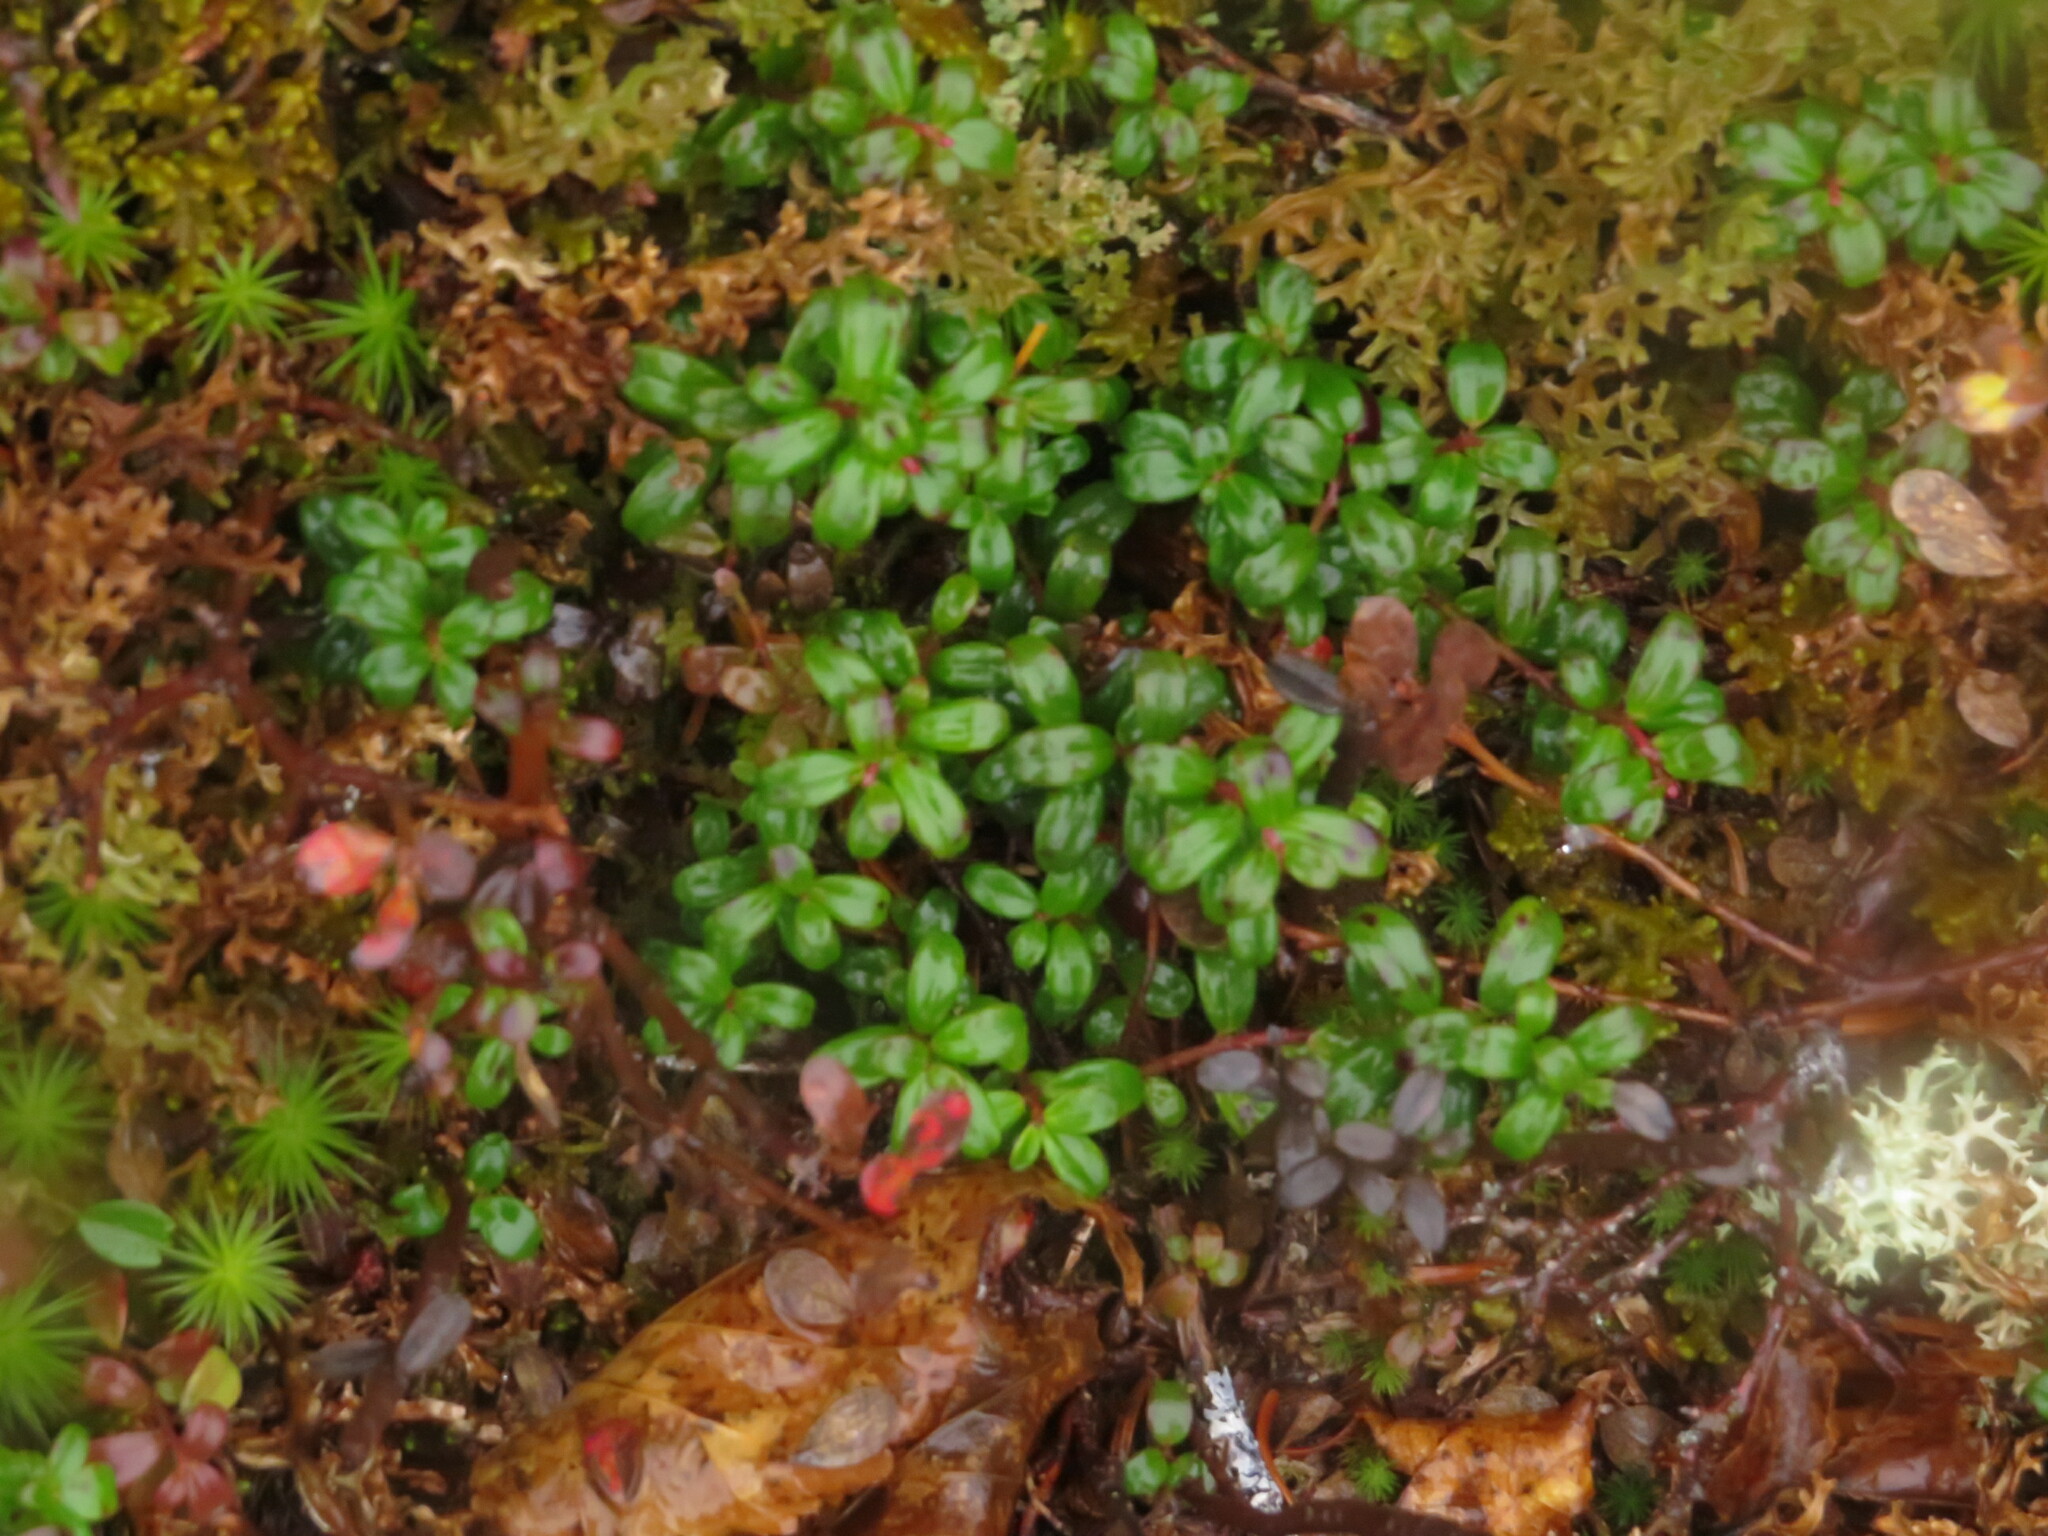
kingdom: Plantae
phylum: Tracheophyta
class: Magnoliopsida
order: Ericales
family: Ericaceae
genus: Vaccinium
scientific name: Vaccinium vitis-idaea
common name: Cowberry
